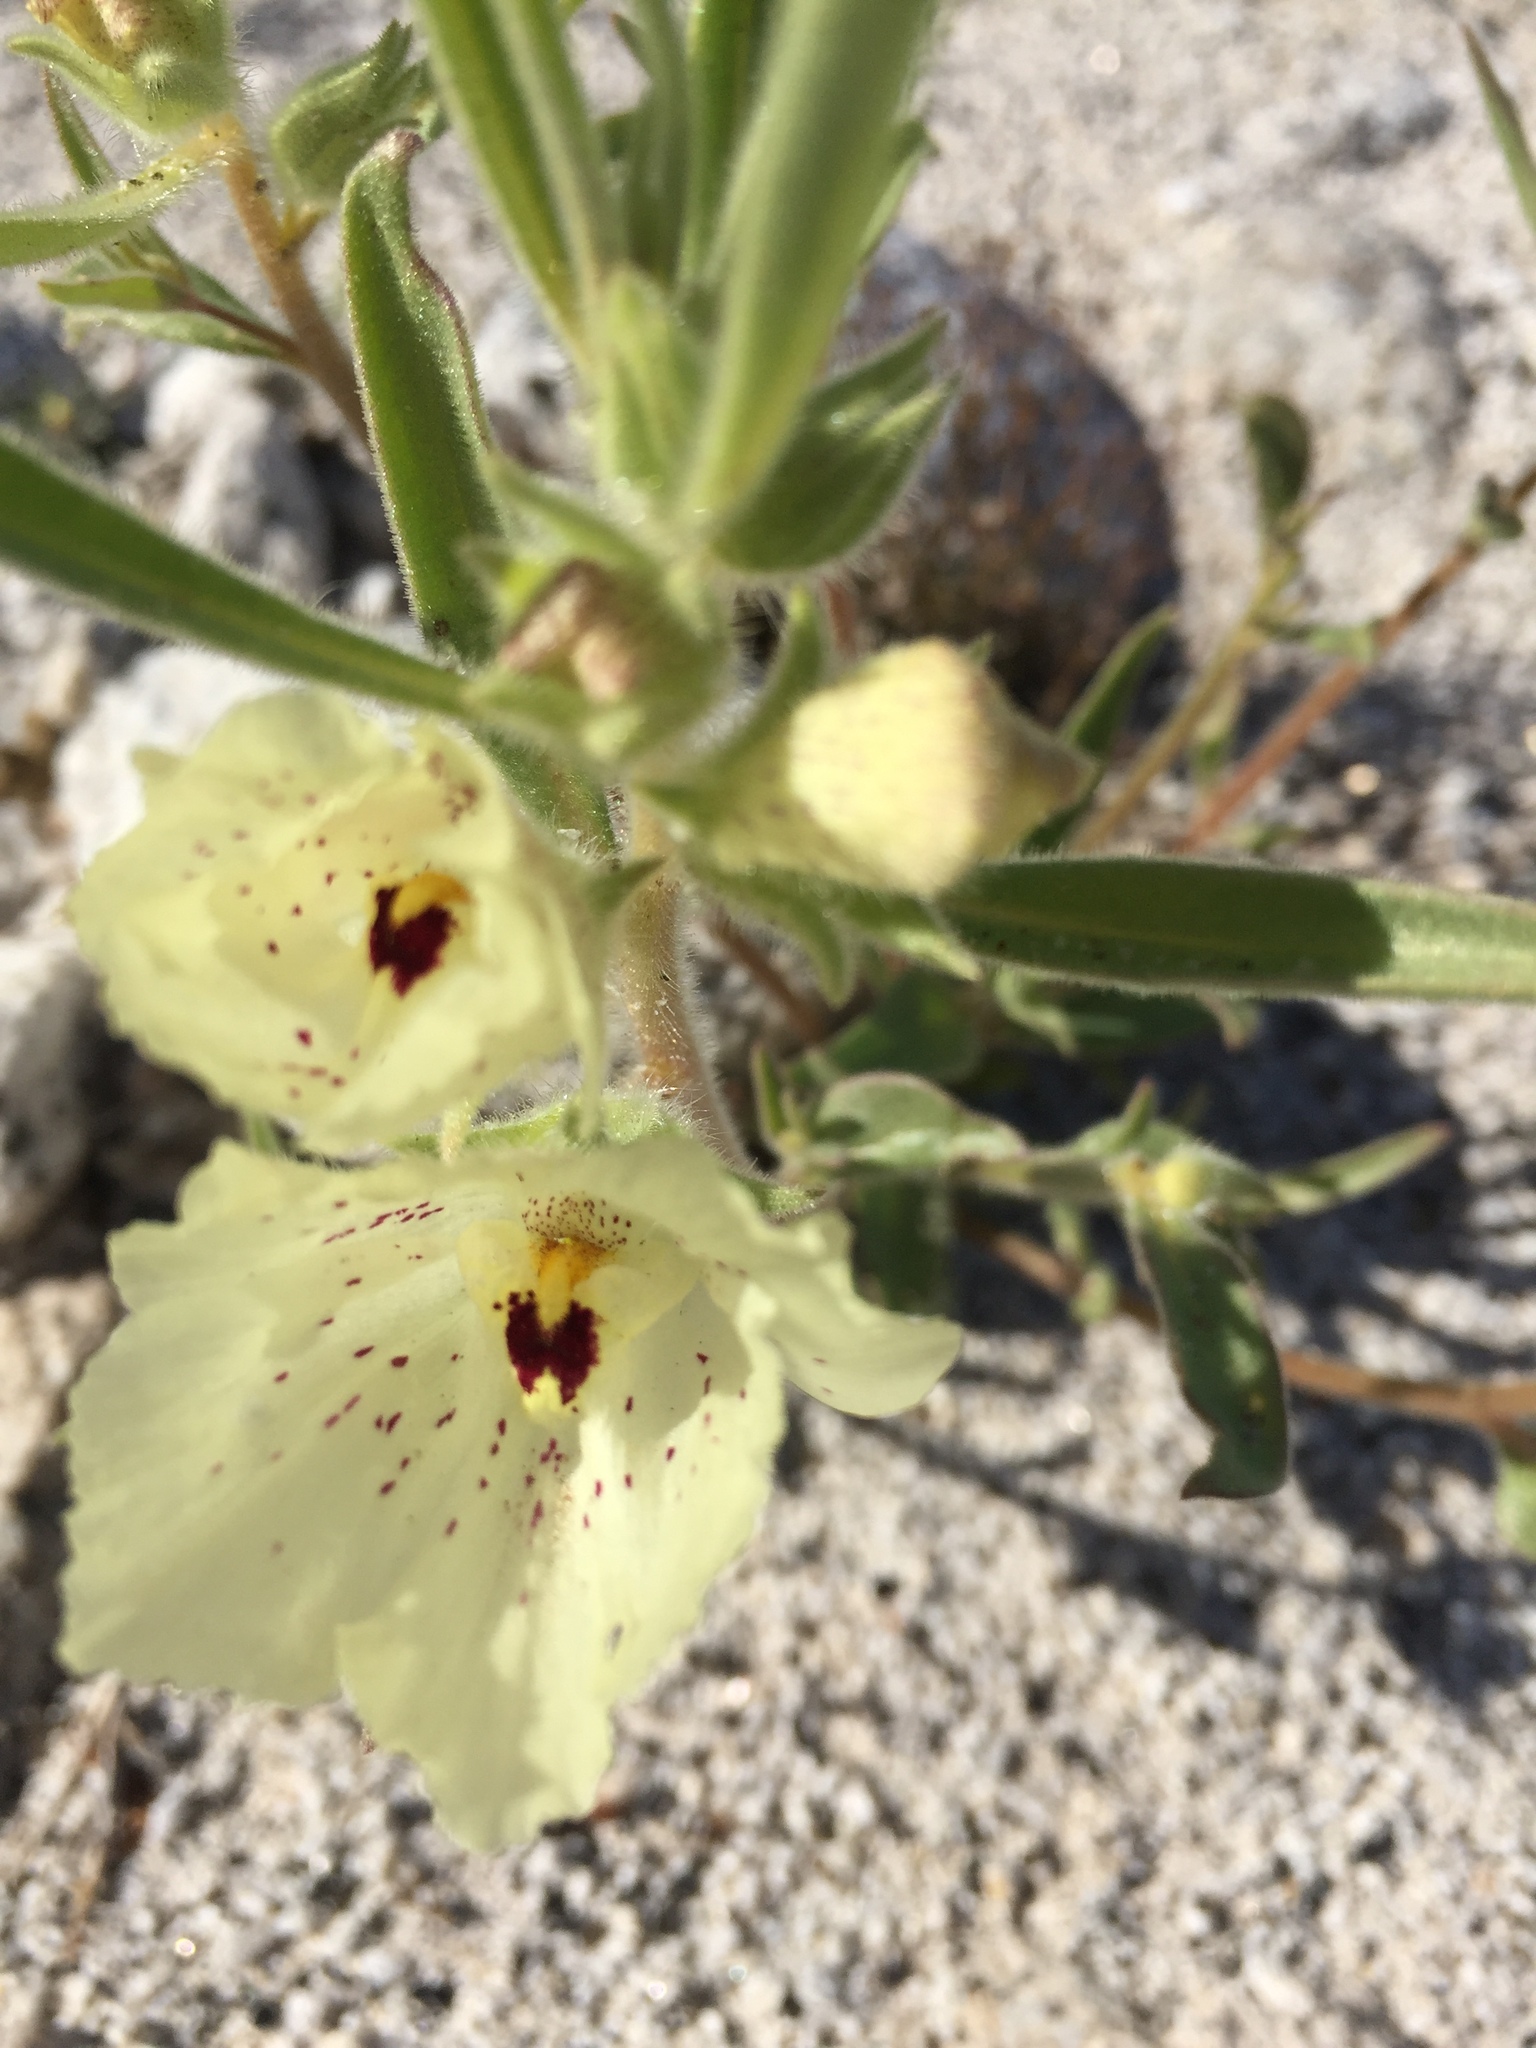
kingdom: Plantae
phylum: Tracheophyta
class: Magnoliopsida
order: Lamiales
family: Plantaginaceae
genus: Mohavea
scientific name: Mohavea confertiflora
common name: Ghost flower
